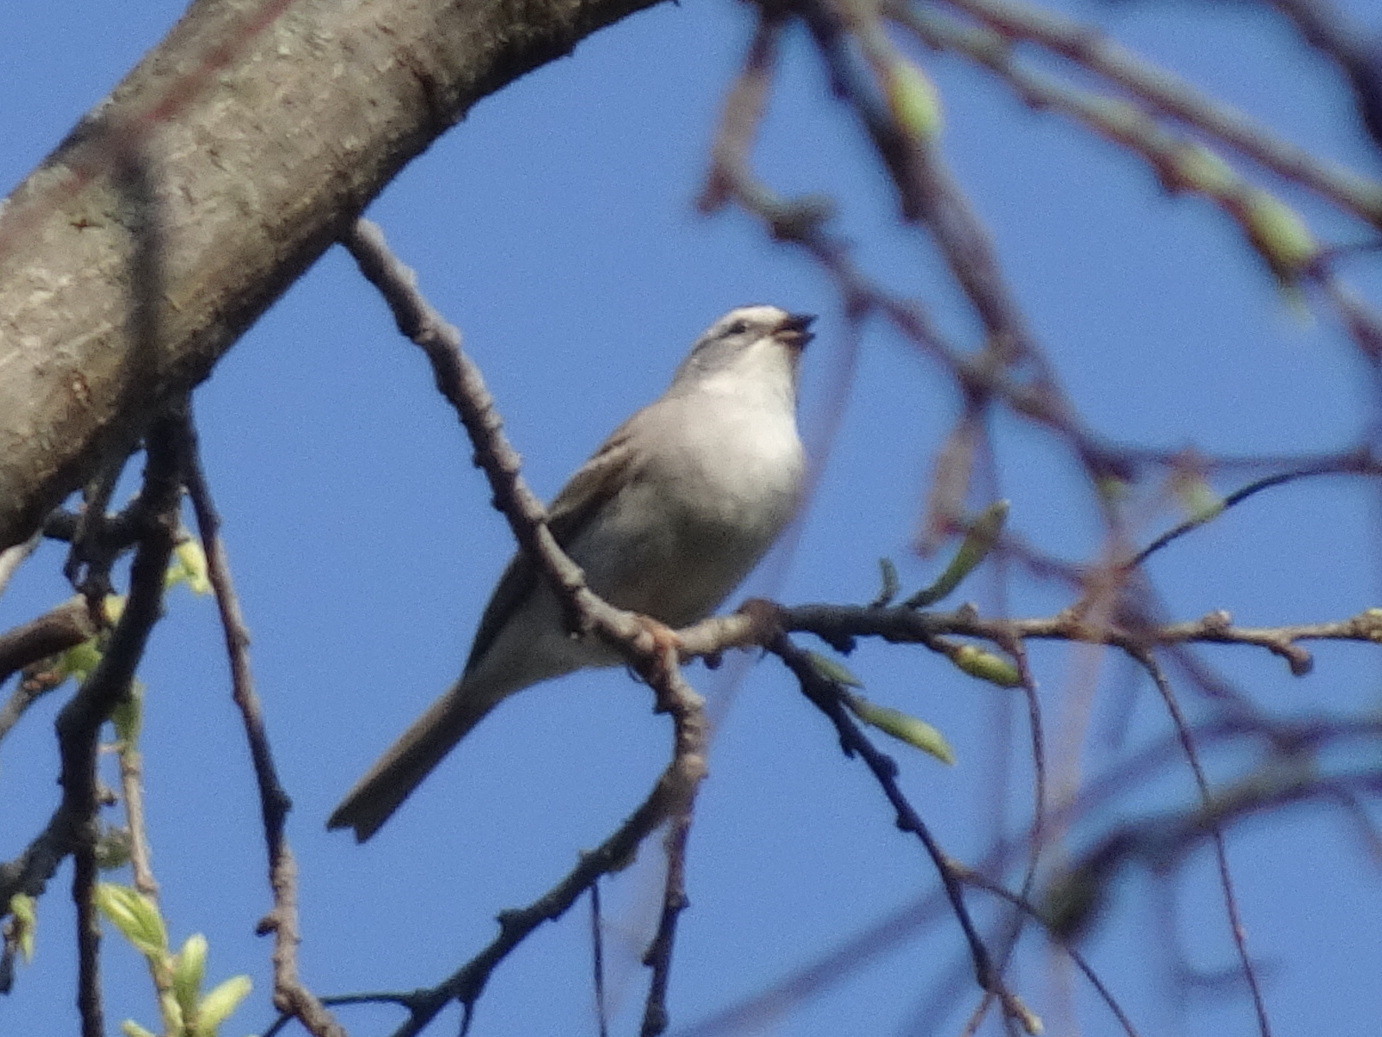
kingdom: Animalia
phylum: Chordata
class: Aves
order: Passeriformes
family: Passerellidae
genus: Spizella
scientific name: Spizella passerina
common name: Chipping sparrow
